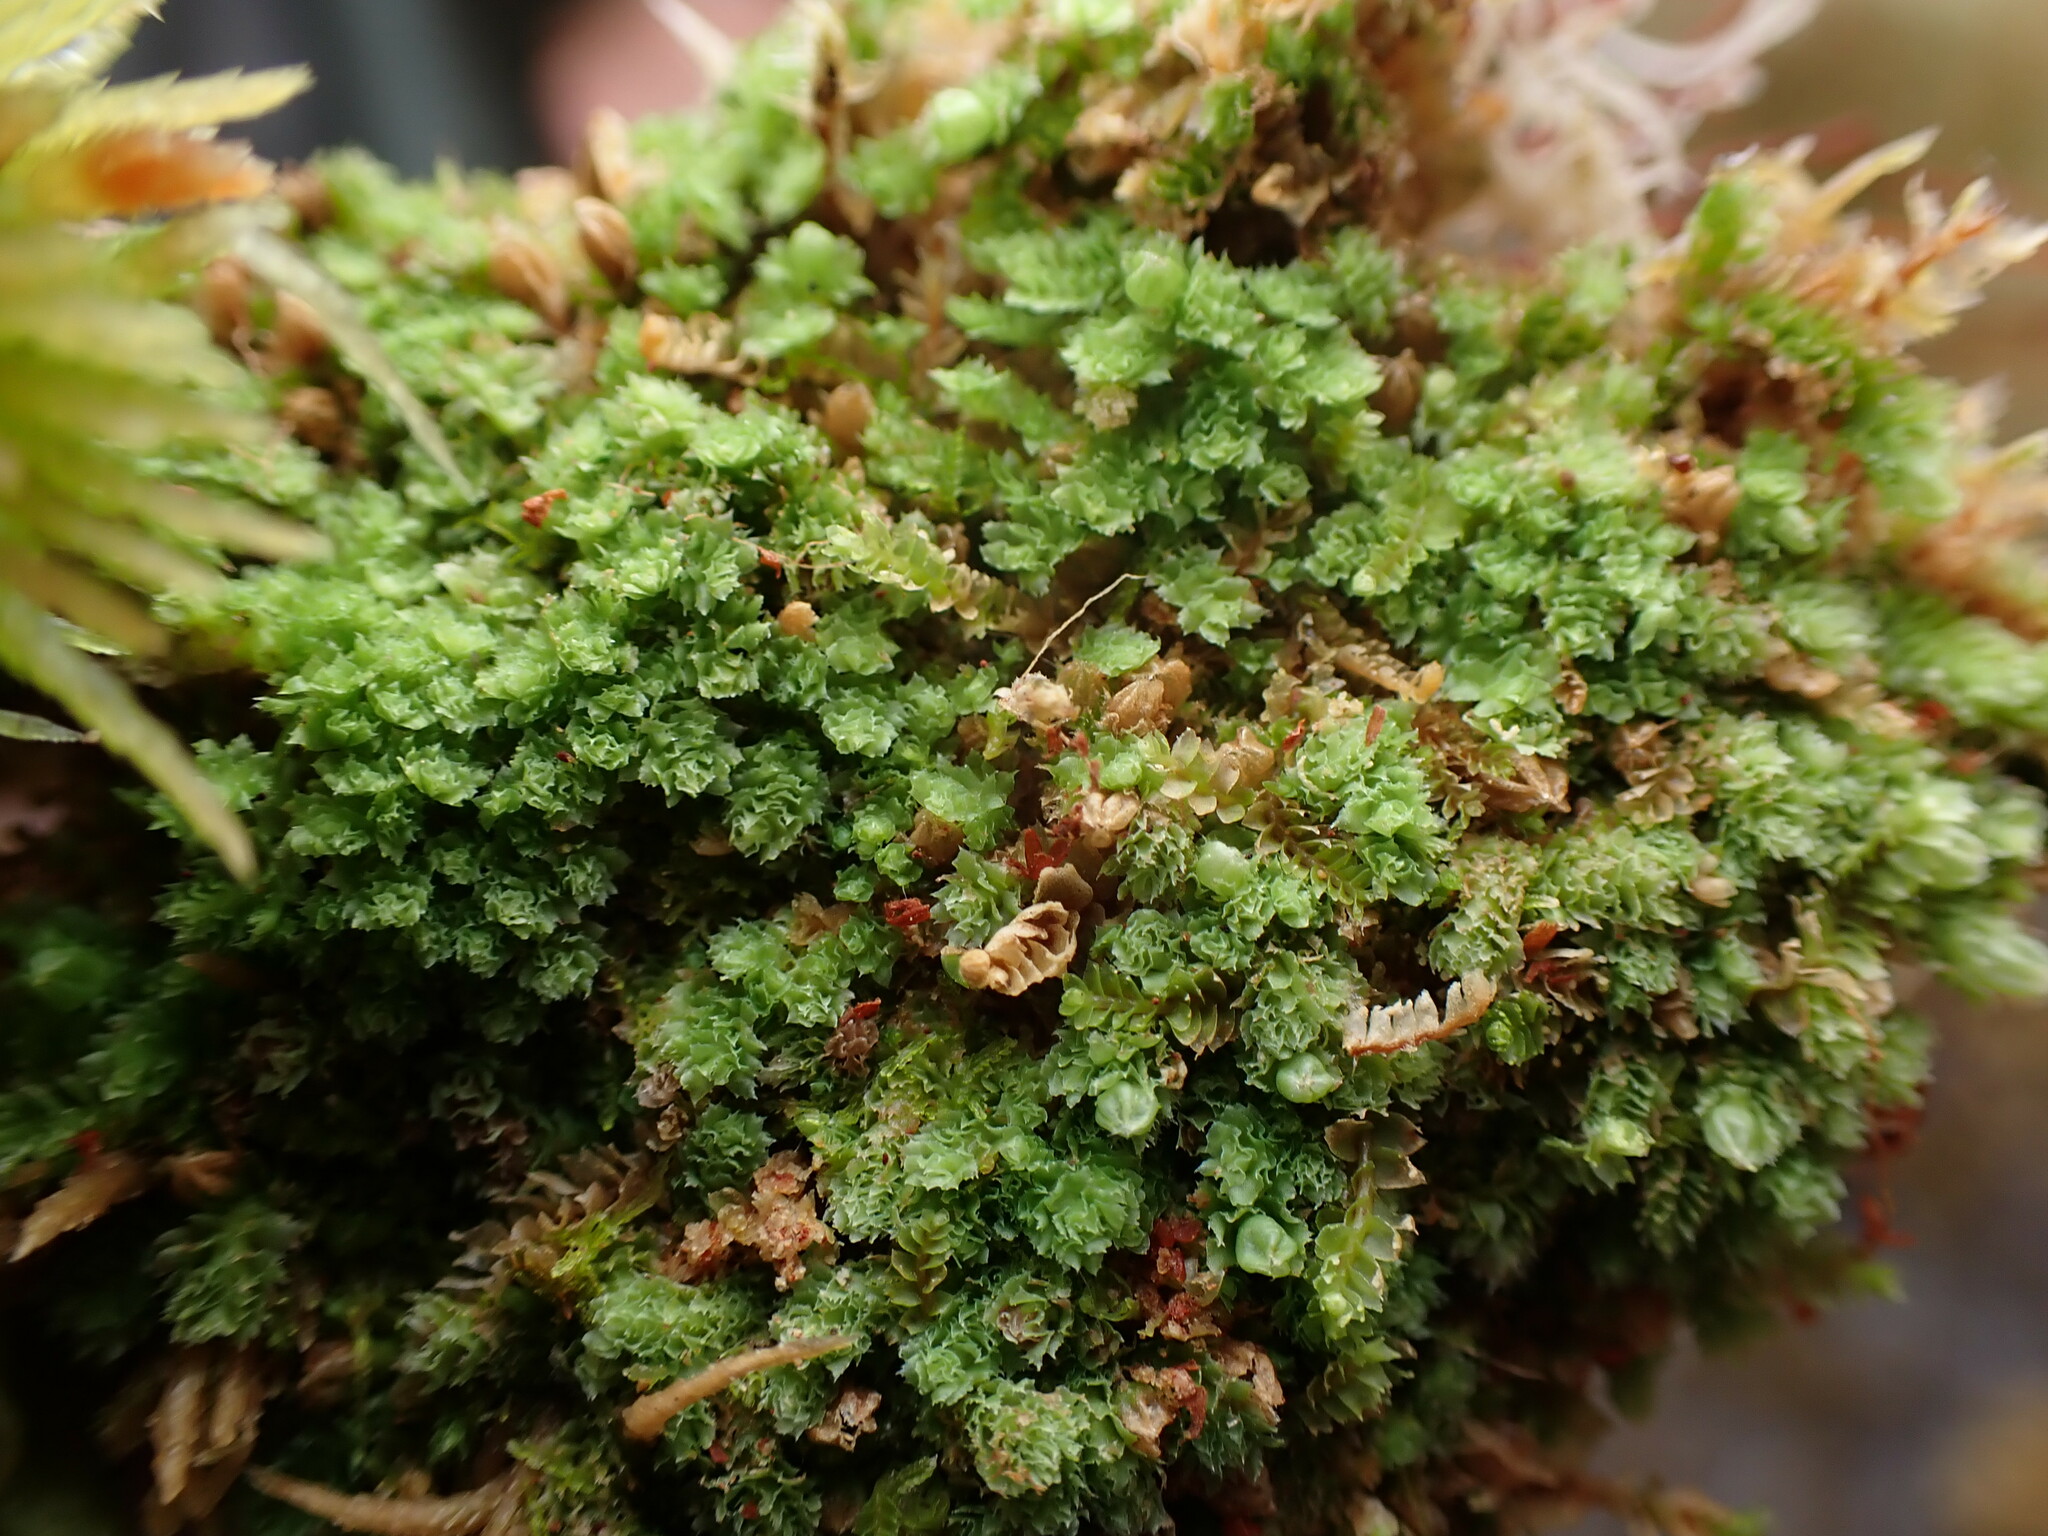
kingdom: Plantae
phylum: Marchantiophyta
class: Jungermanniopsida
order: Jungermanniales
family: Scapaniaceae
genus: Schistochilopsis
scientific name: Schistochilopsis incisa
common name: Jagged notchwort
